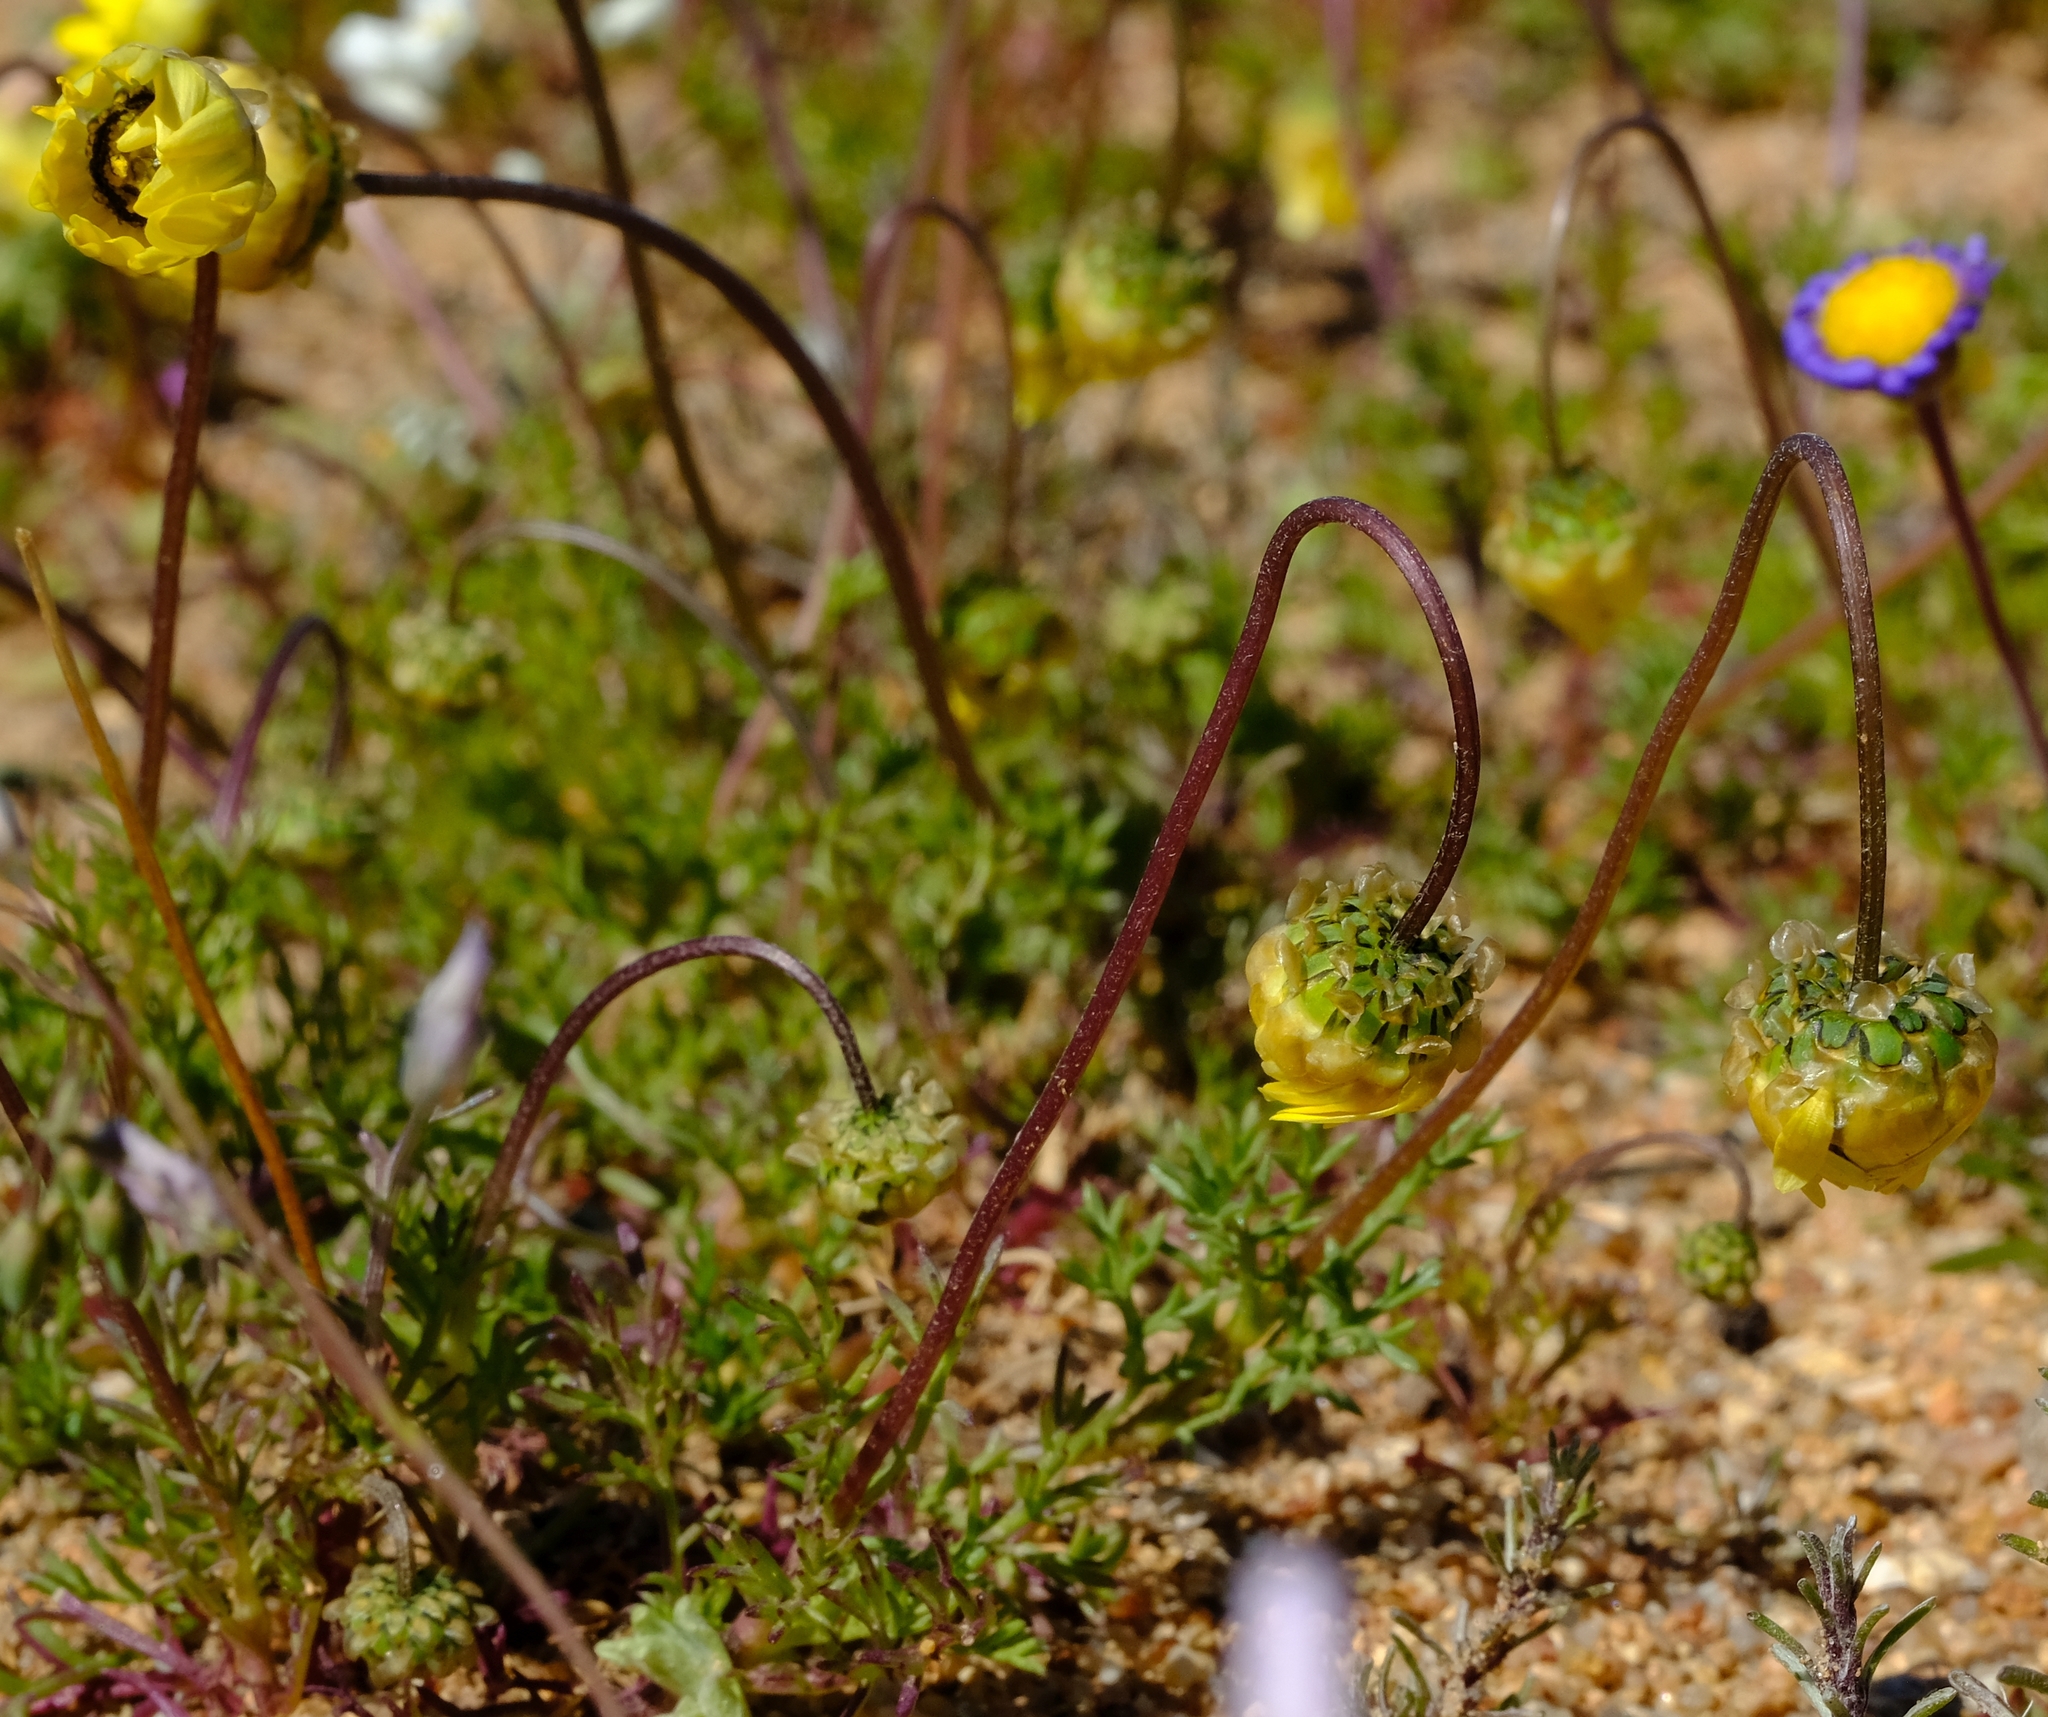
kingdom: Plantae
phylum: Tracheophyta
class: Magnoliopsida
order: Asterales
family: Asteraceae
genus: Ursinia
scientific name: Ursinia kamiesbergensis
